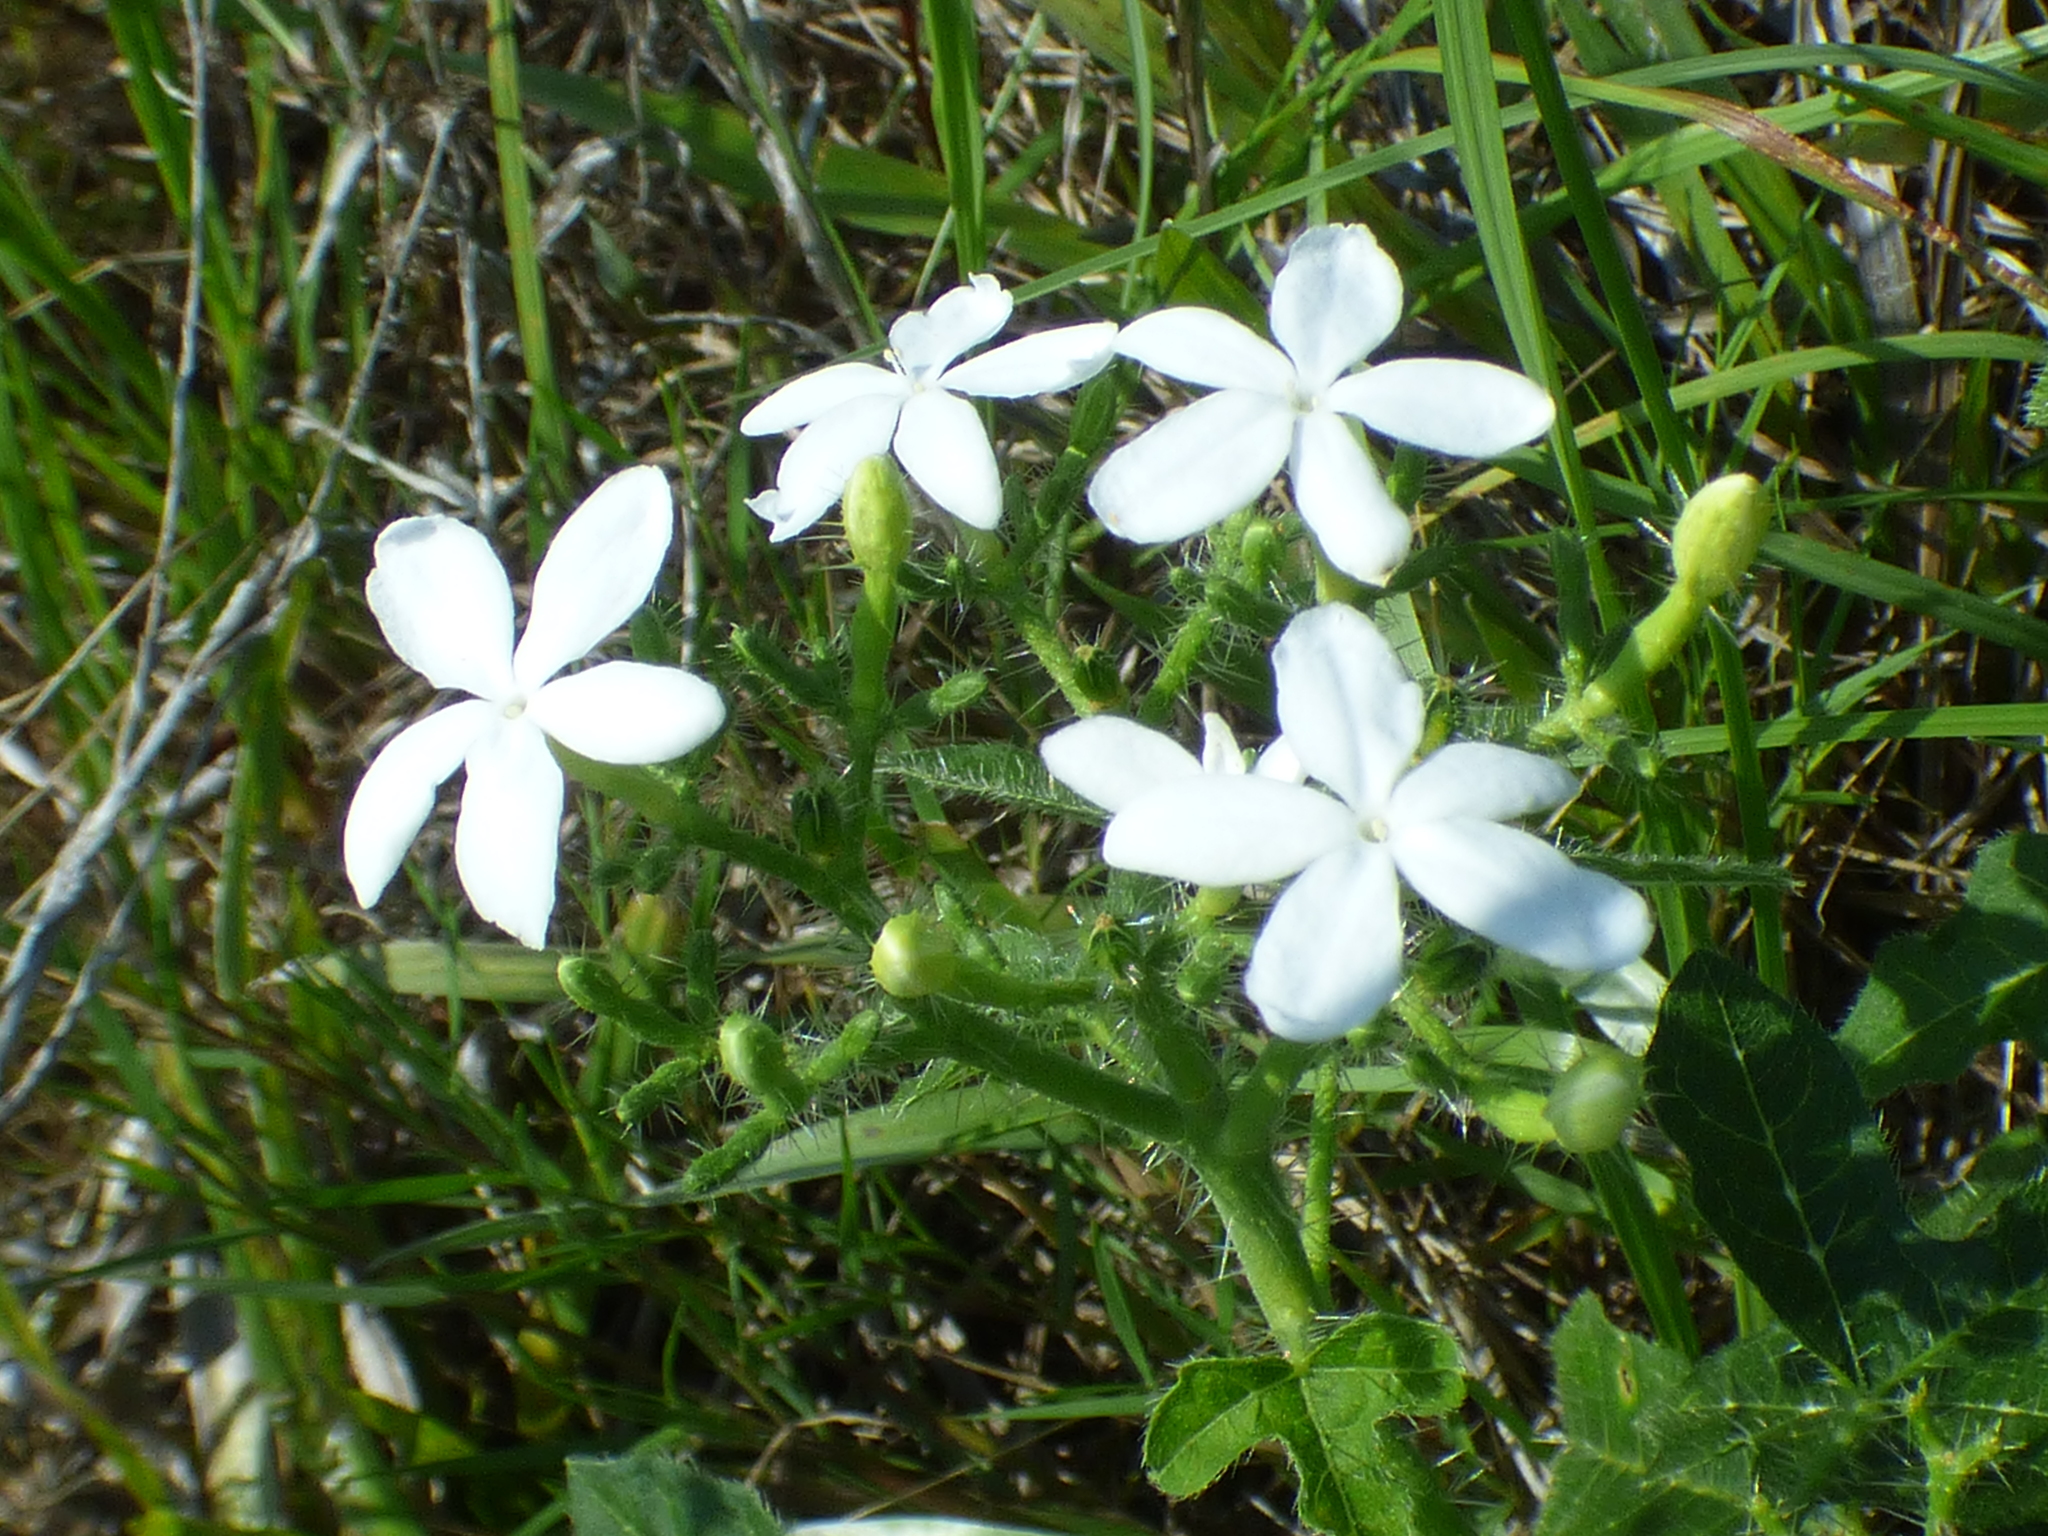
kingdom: Plantae
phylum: Tracheophyta
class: Magnoliopsida
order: Malpighiales
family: Euphorbiaceae
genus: Cnidoscolus
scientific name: Cnidoscolus stimulosus
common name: Bull-nettle
